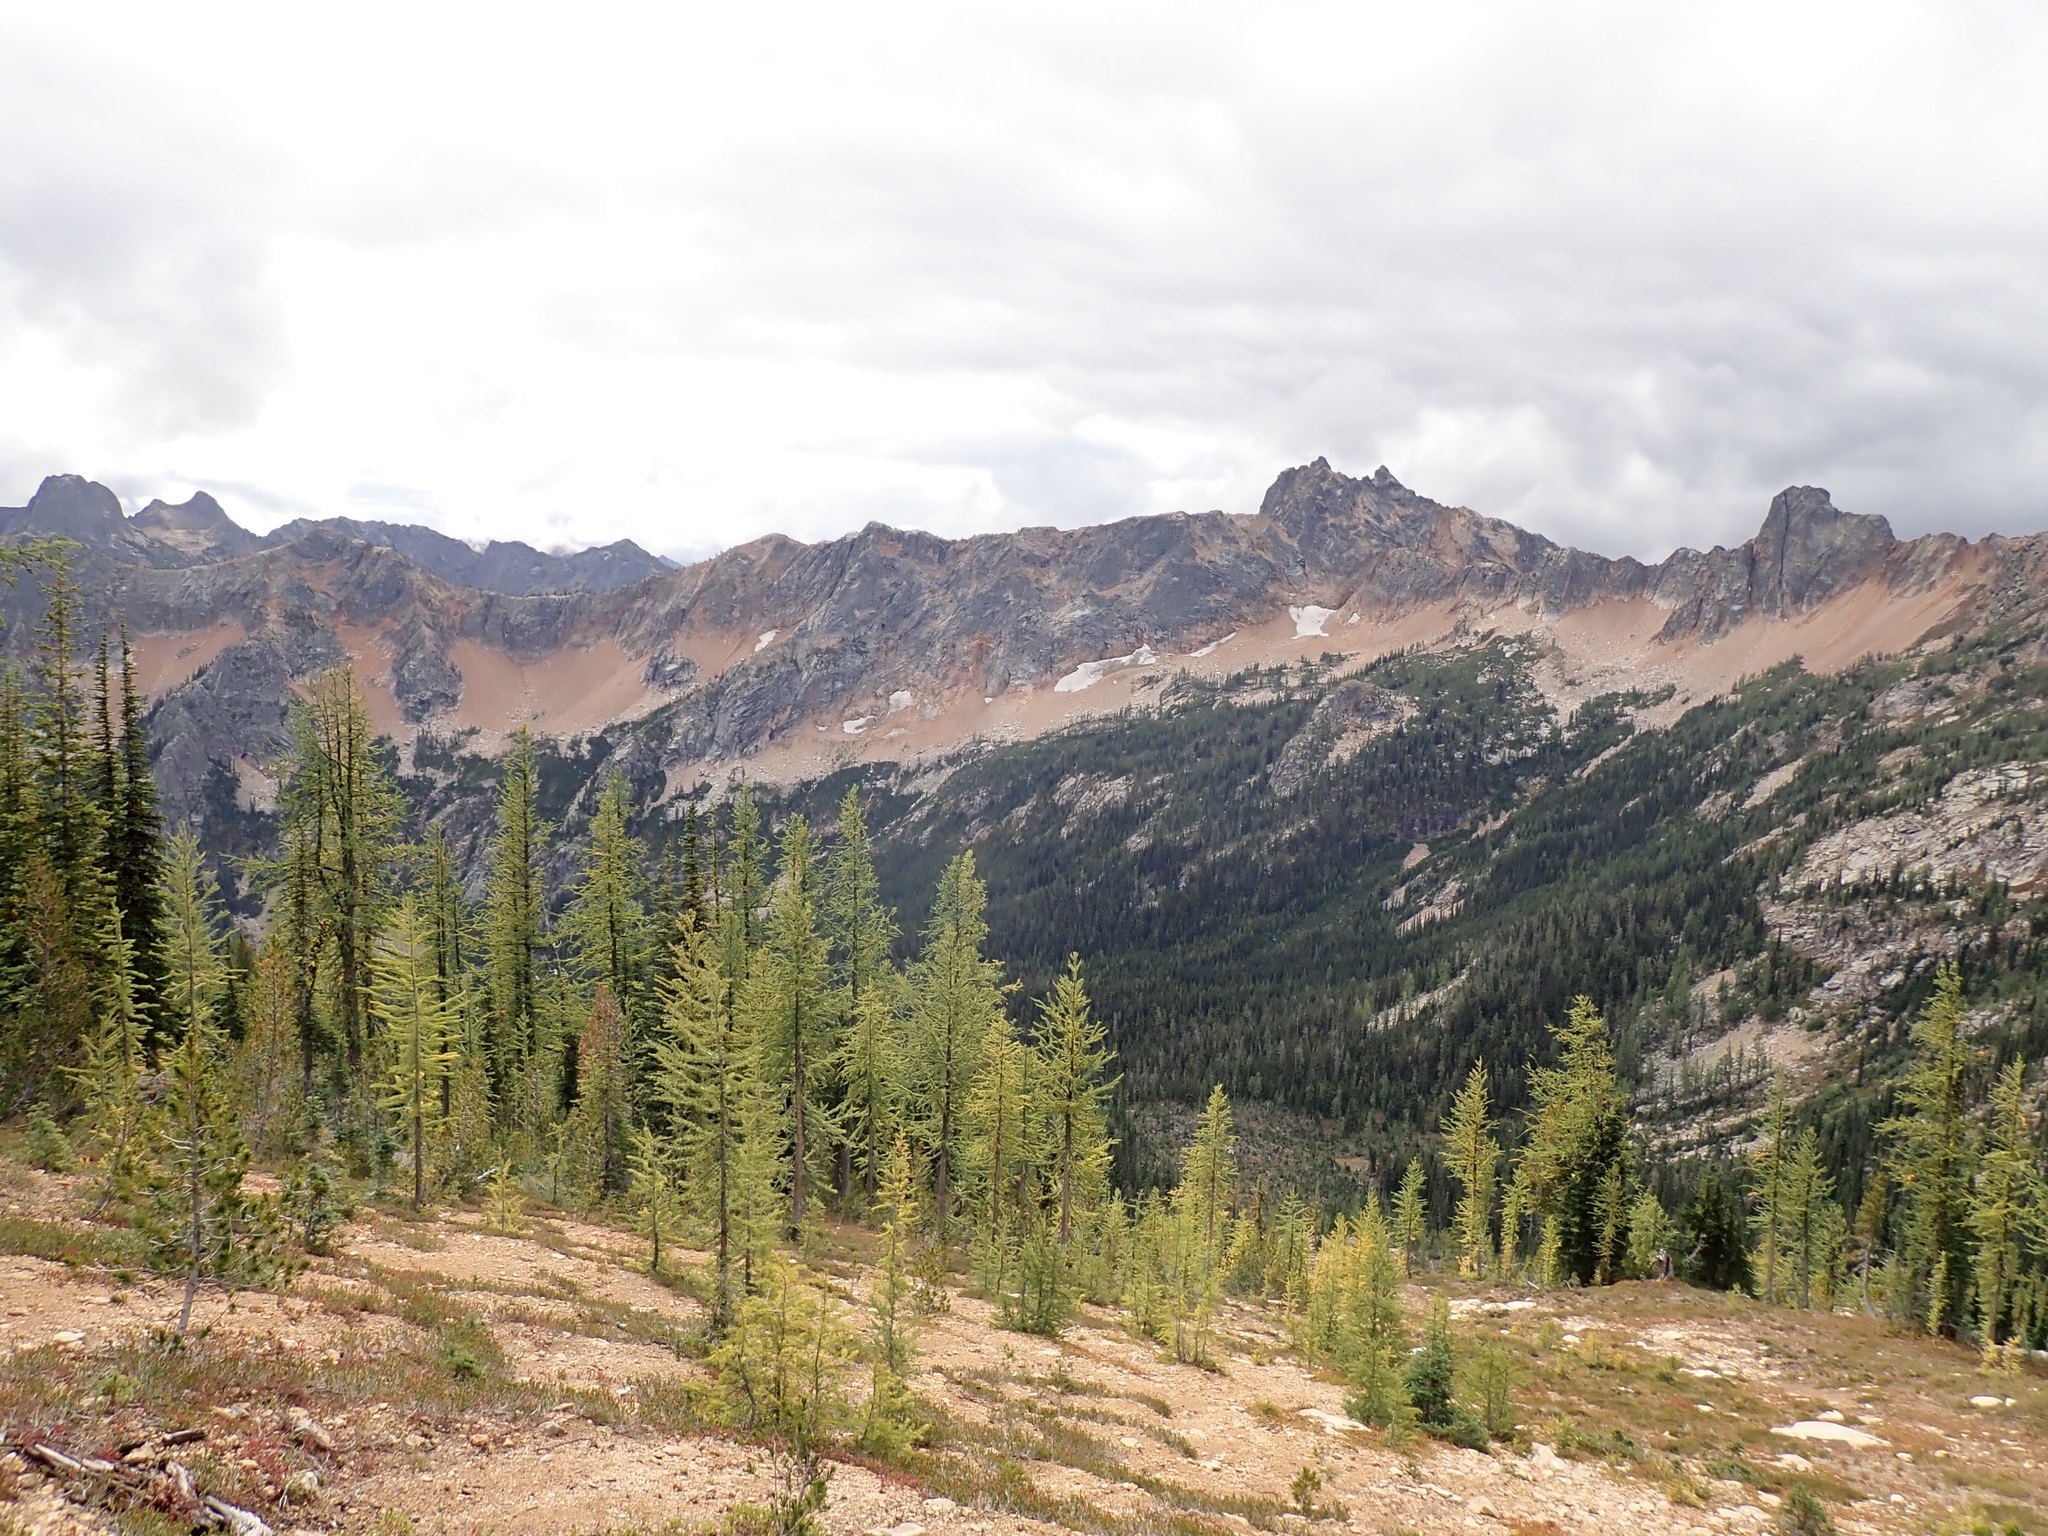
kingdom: Plantae
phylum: Tracheophyta
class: Pinopsida
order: Pinales
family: Pinaceae
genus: Larix
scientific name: Larix lyallii
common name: Alpine larch
